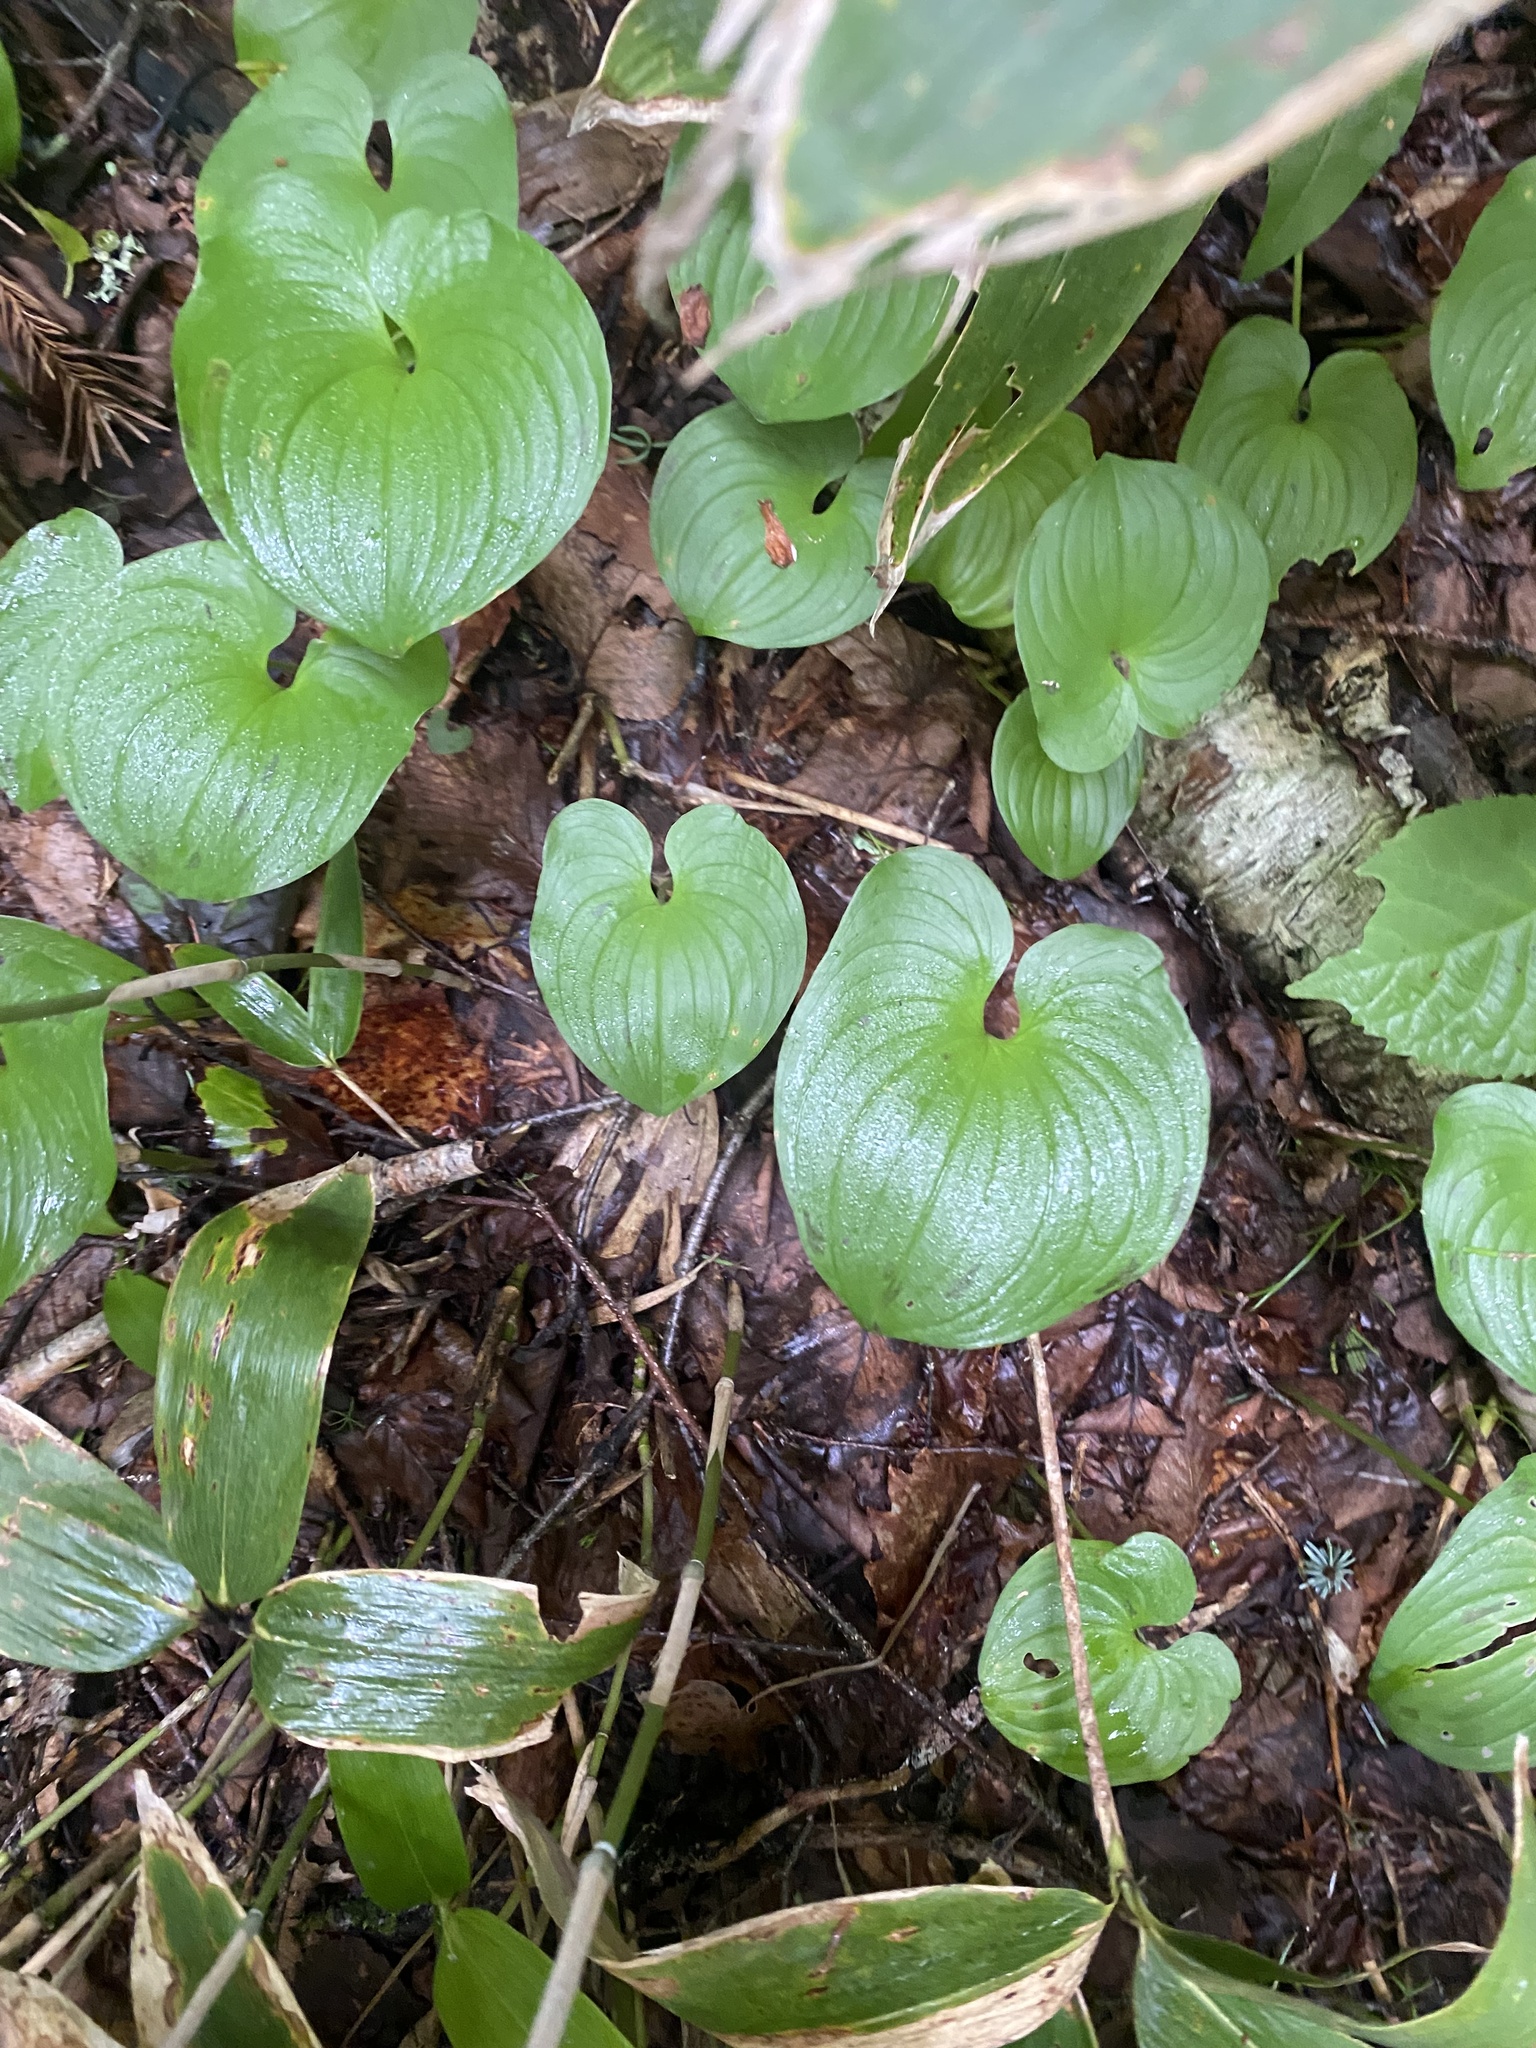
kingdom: Plantae
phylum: Tracheophyta
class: Liliopsida
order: Asparagales
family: Asparagaceae
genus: Maianthemum
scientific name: Maianthemum dilatatum
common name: False lily-of-the-valley
